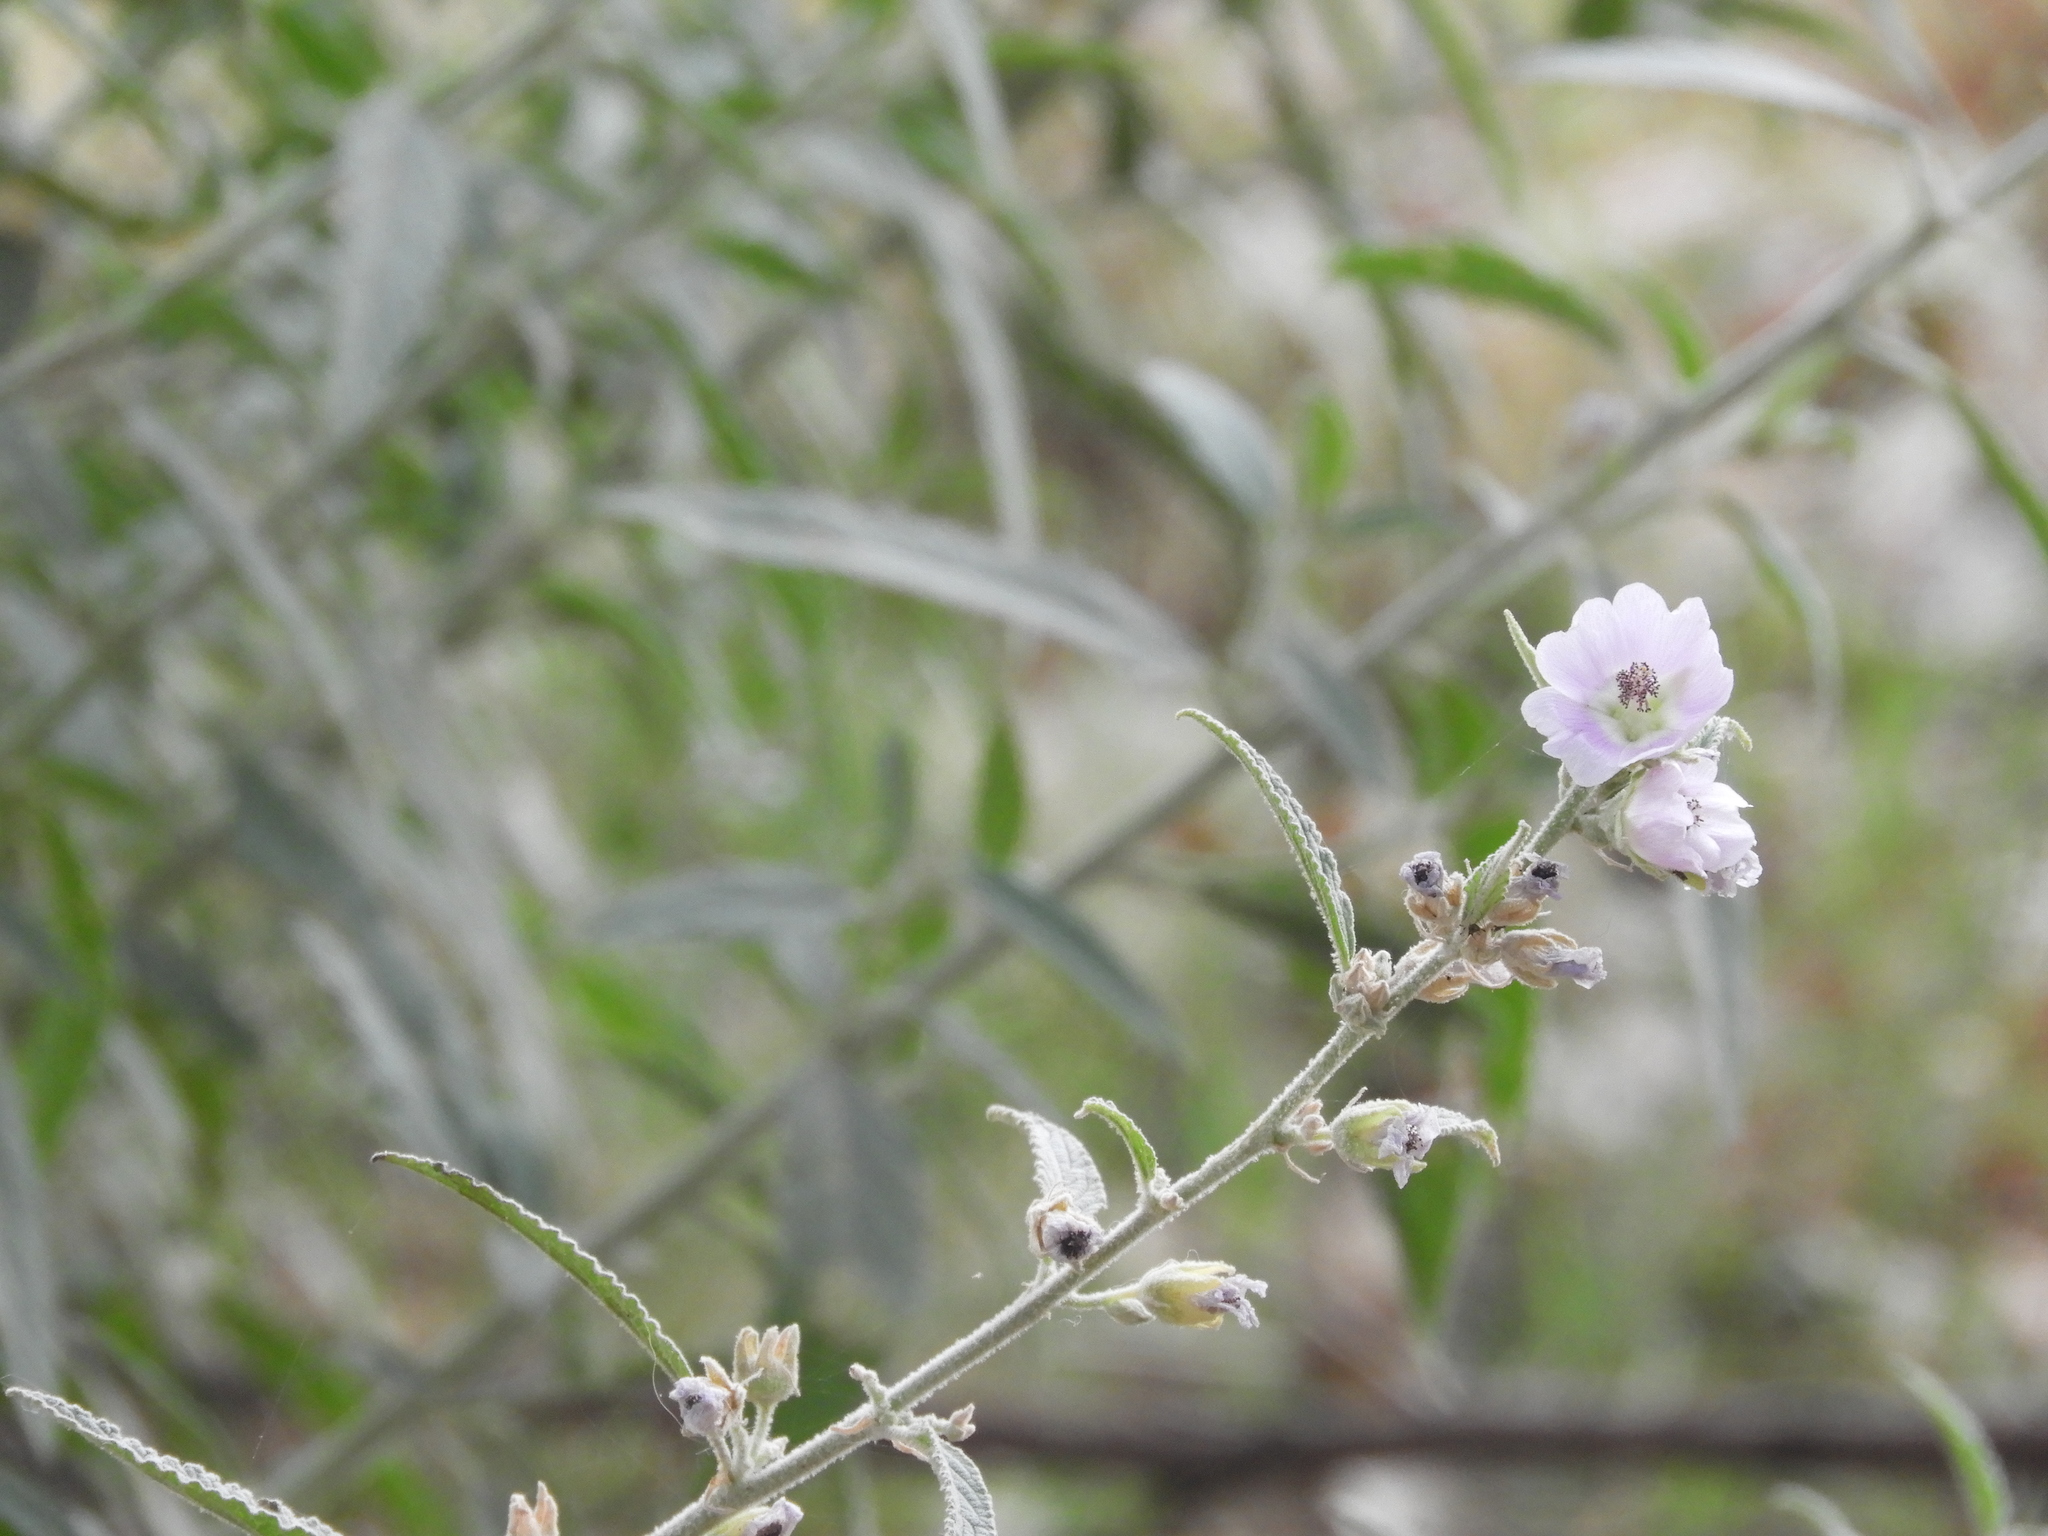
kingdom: Plantae
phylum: Tracheophyta
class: Magnoliopsida
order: Malvales
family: Malvaceae
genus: Sphaeralcea
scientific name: Sphaeralcea angustifolia
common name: Copper globe-mallow
